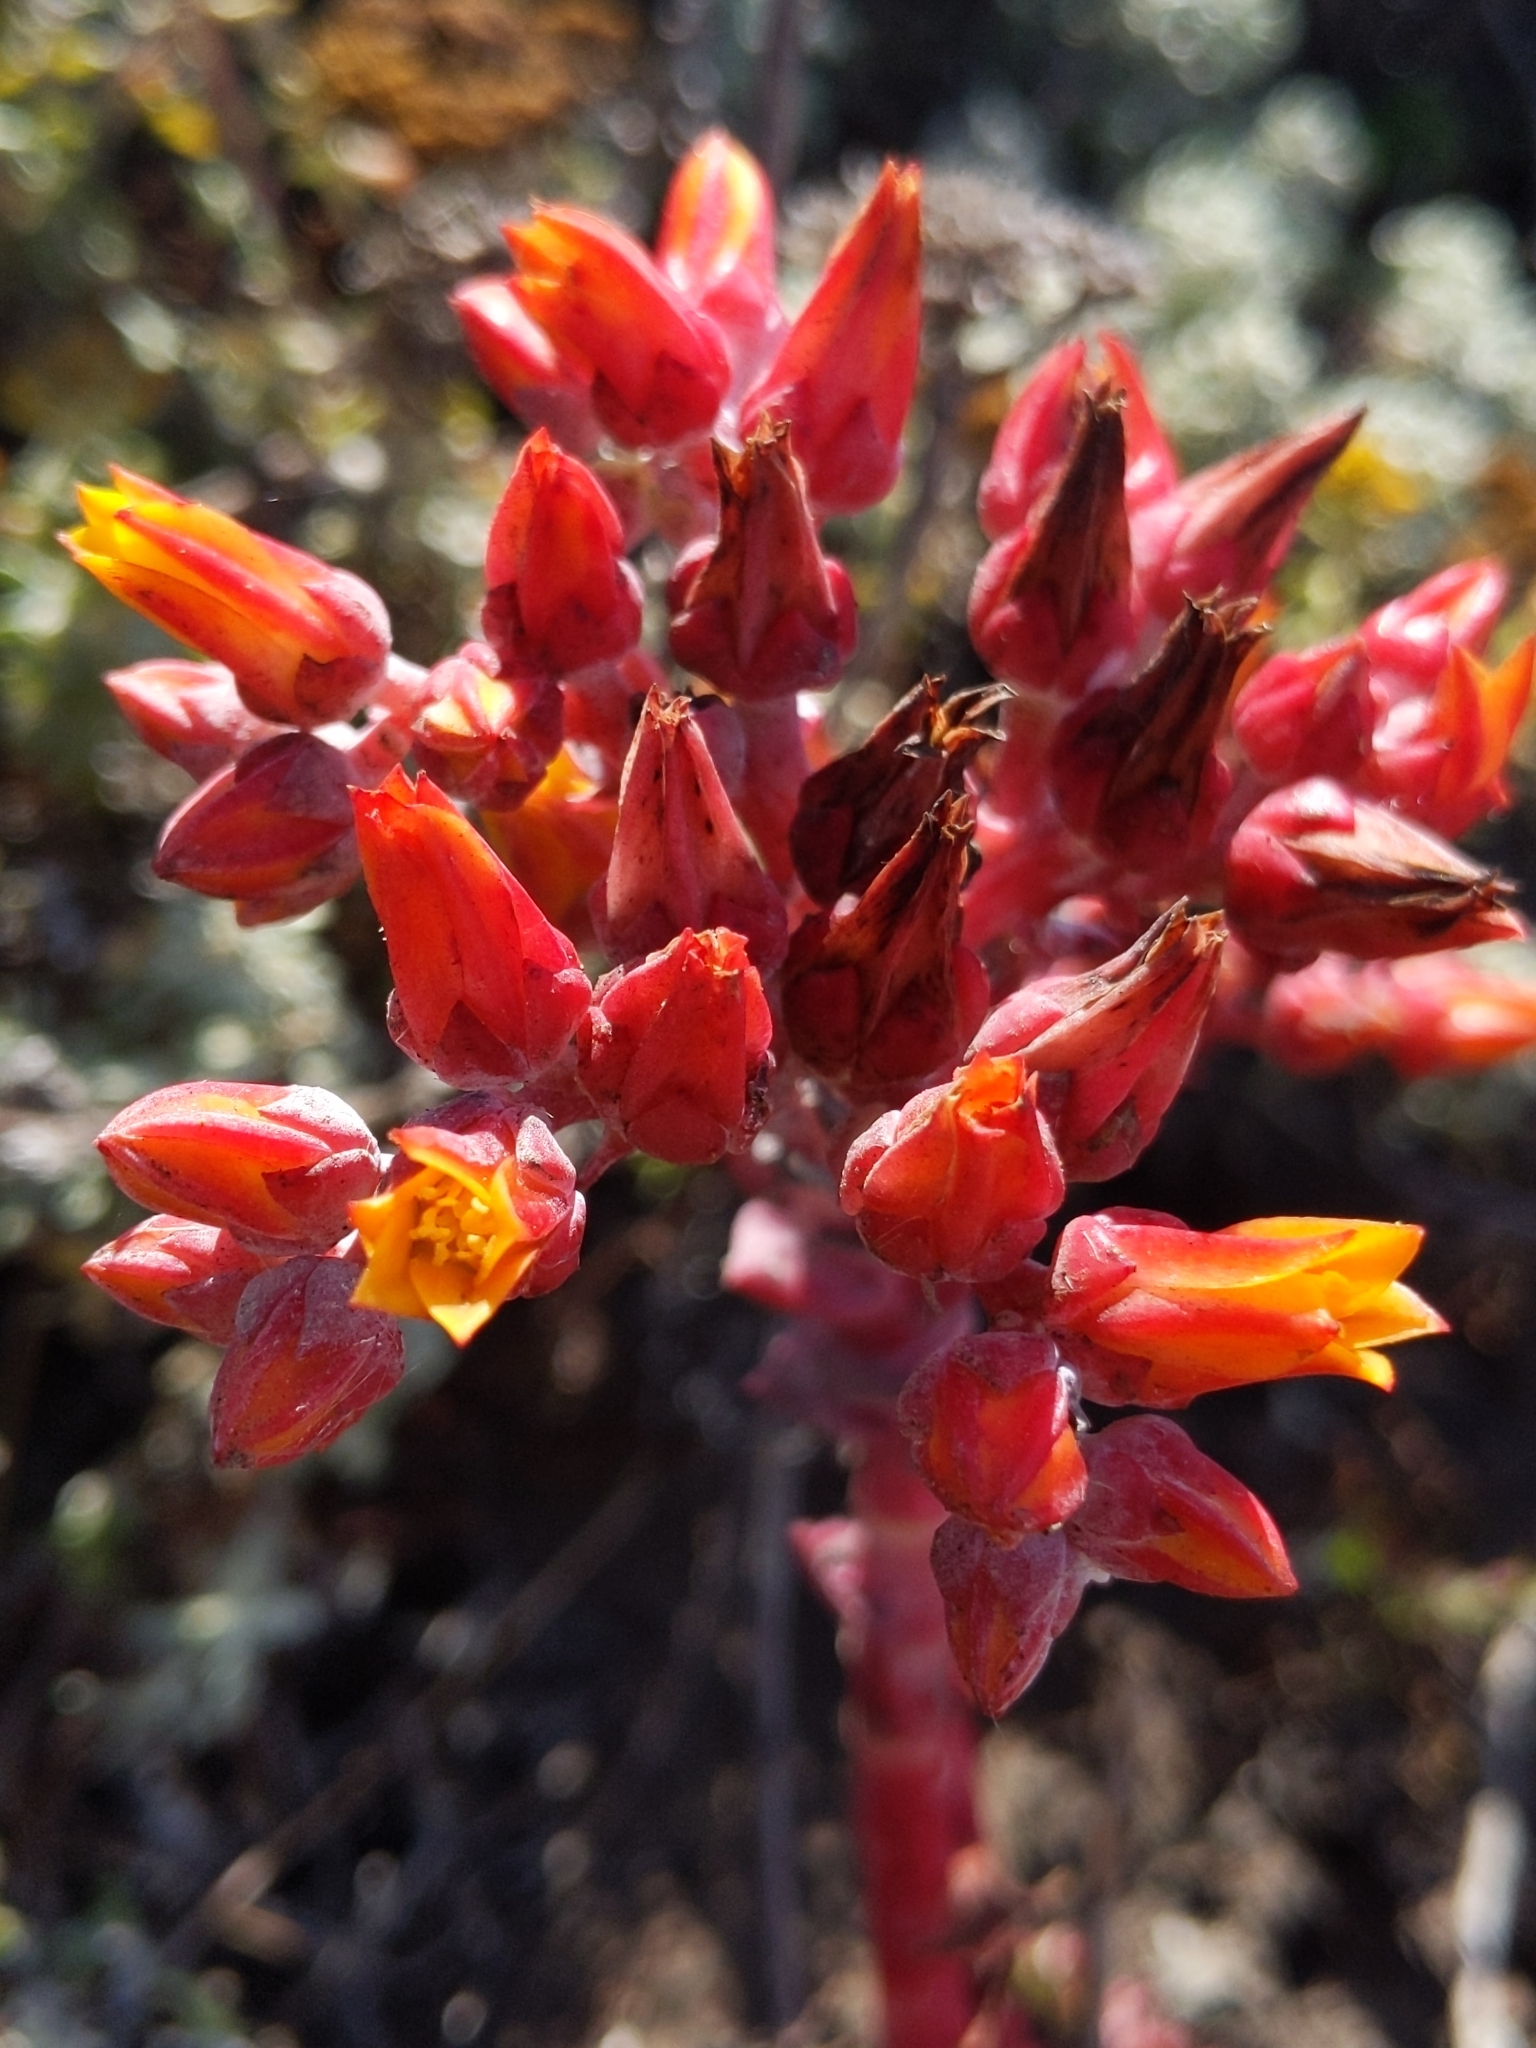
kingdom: Plantae
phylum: Tracheophyta
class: Magnoliopsida
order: Saxifragales
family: Crassulaceae
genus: Dudleya
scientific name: Dudleya palmeri
